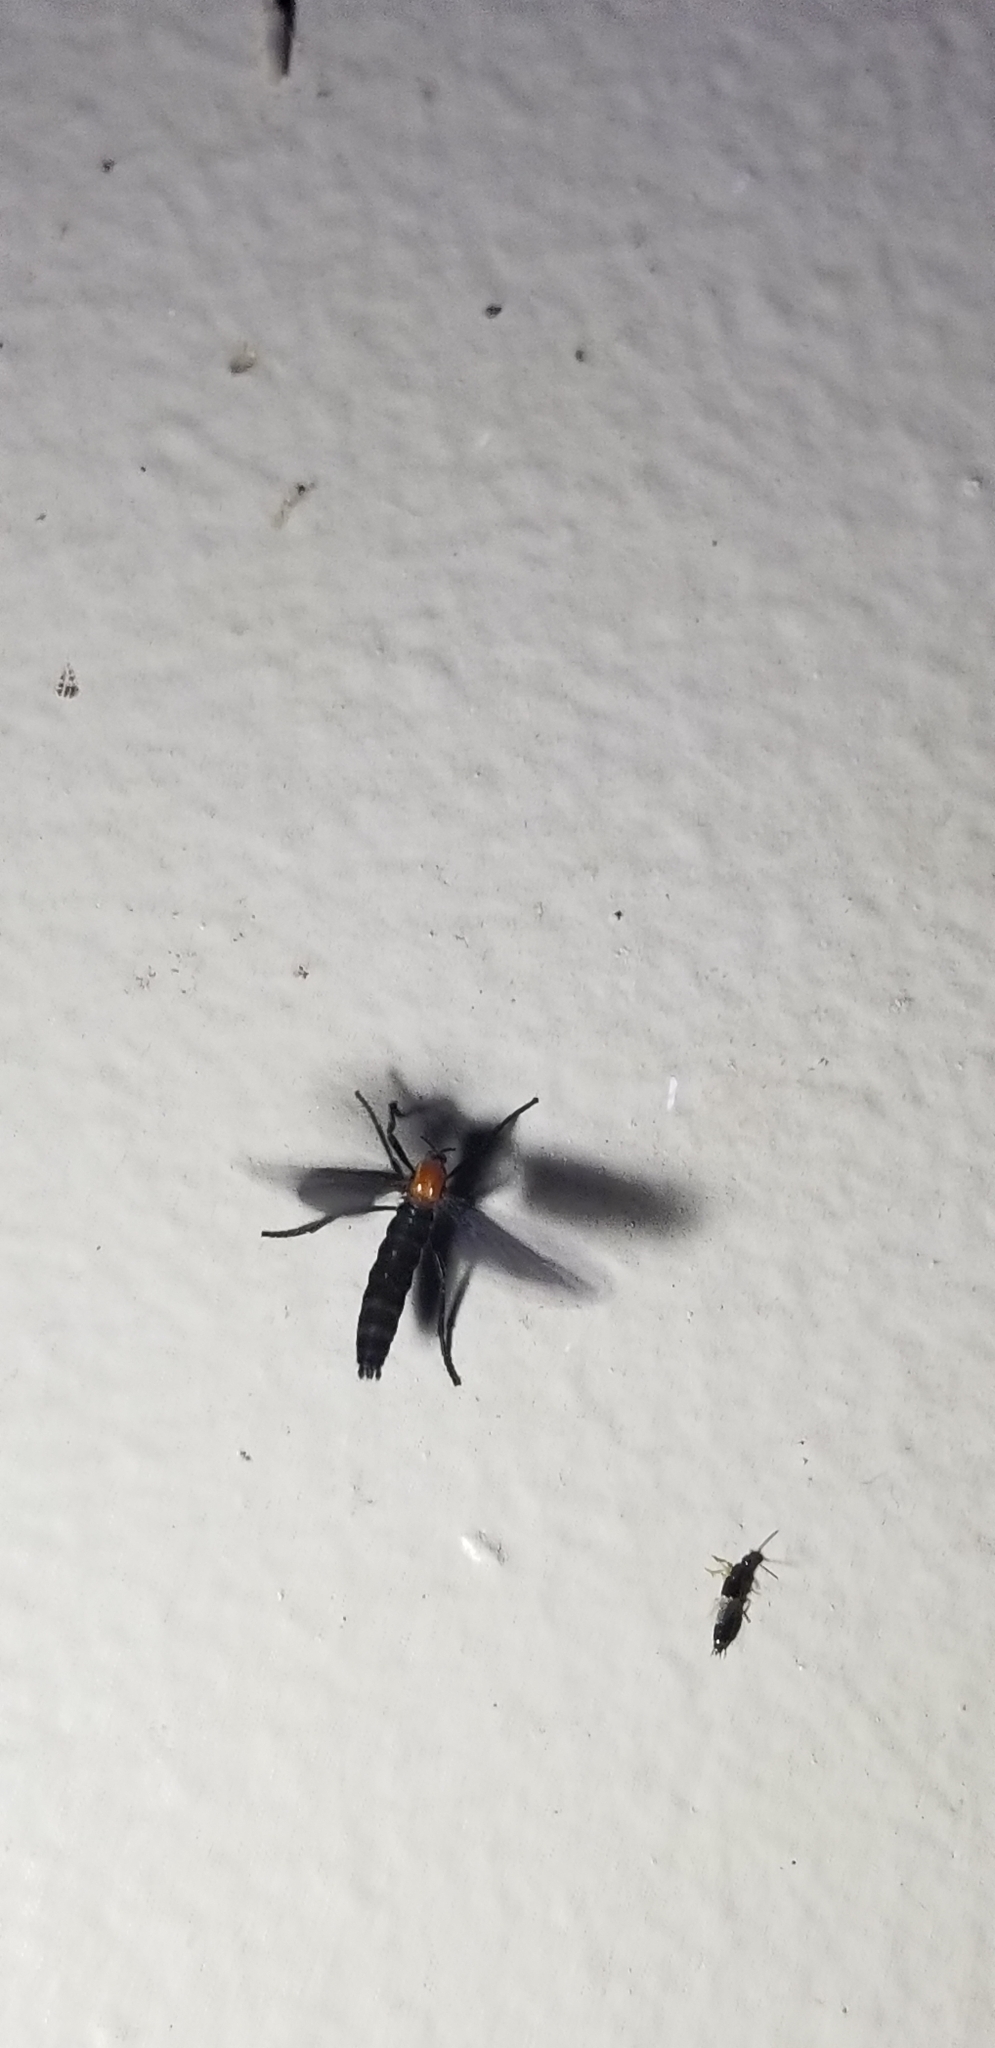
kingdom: Animalia
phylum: Arthropoda
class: Insecta
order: Diptera
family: Bibionidae
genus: Plecia
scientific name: Plecia nearctica
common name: March fly
